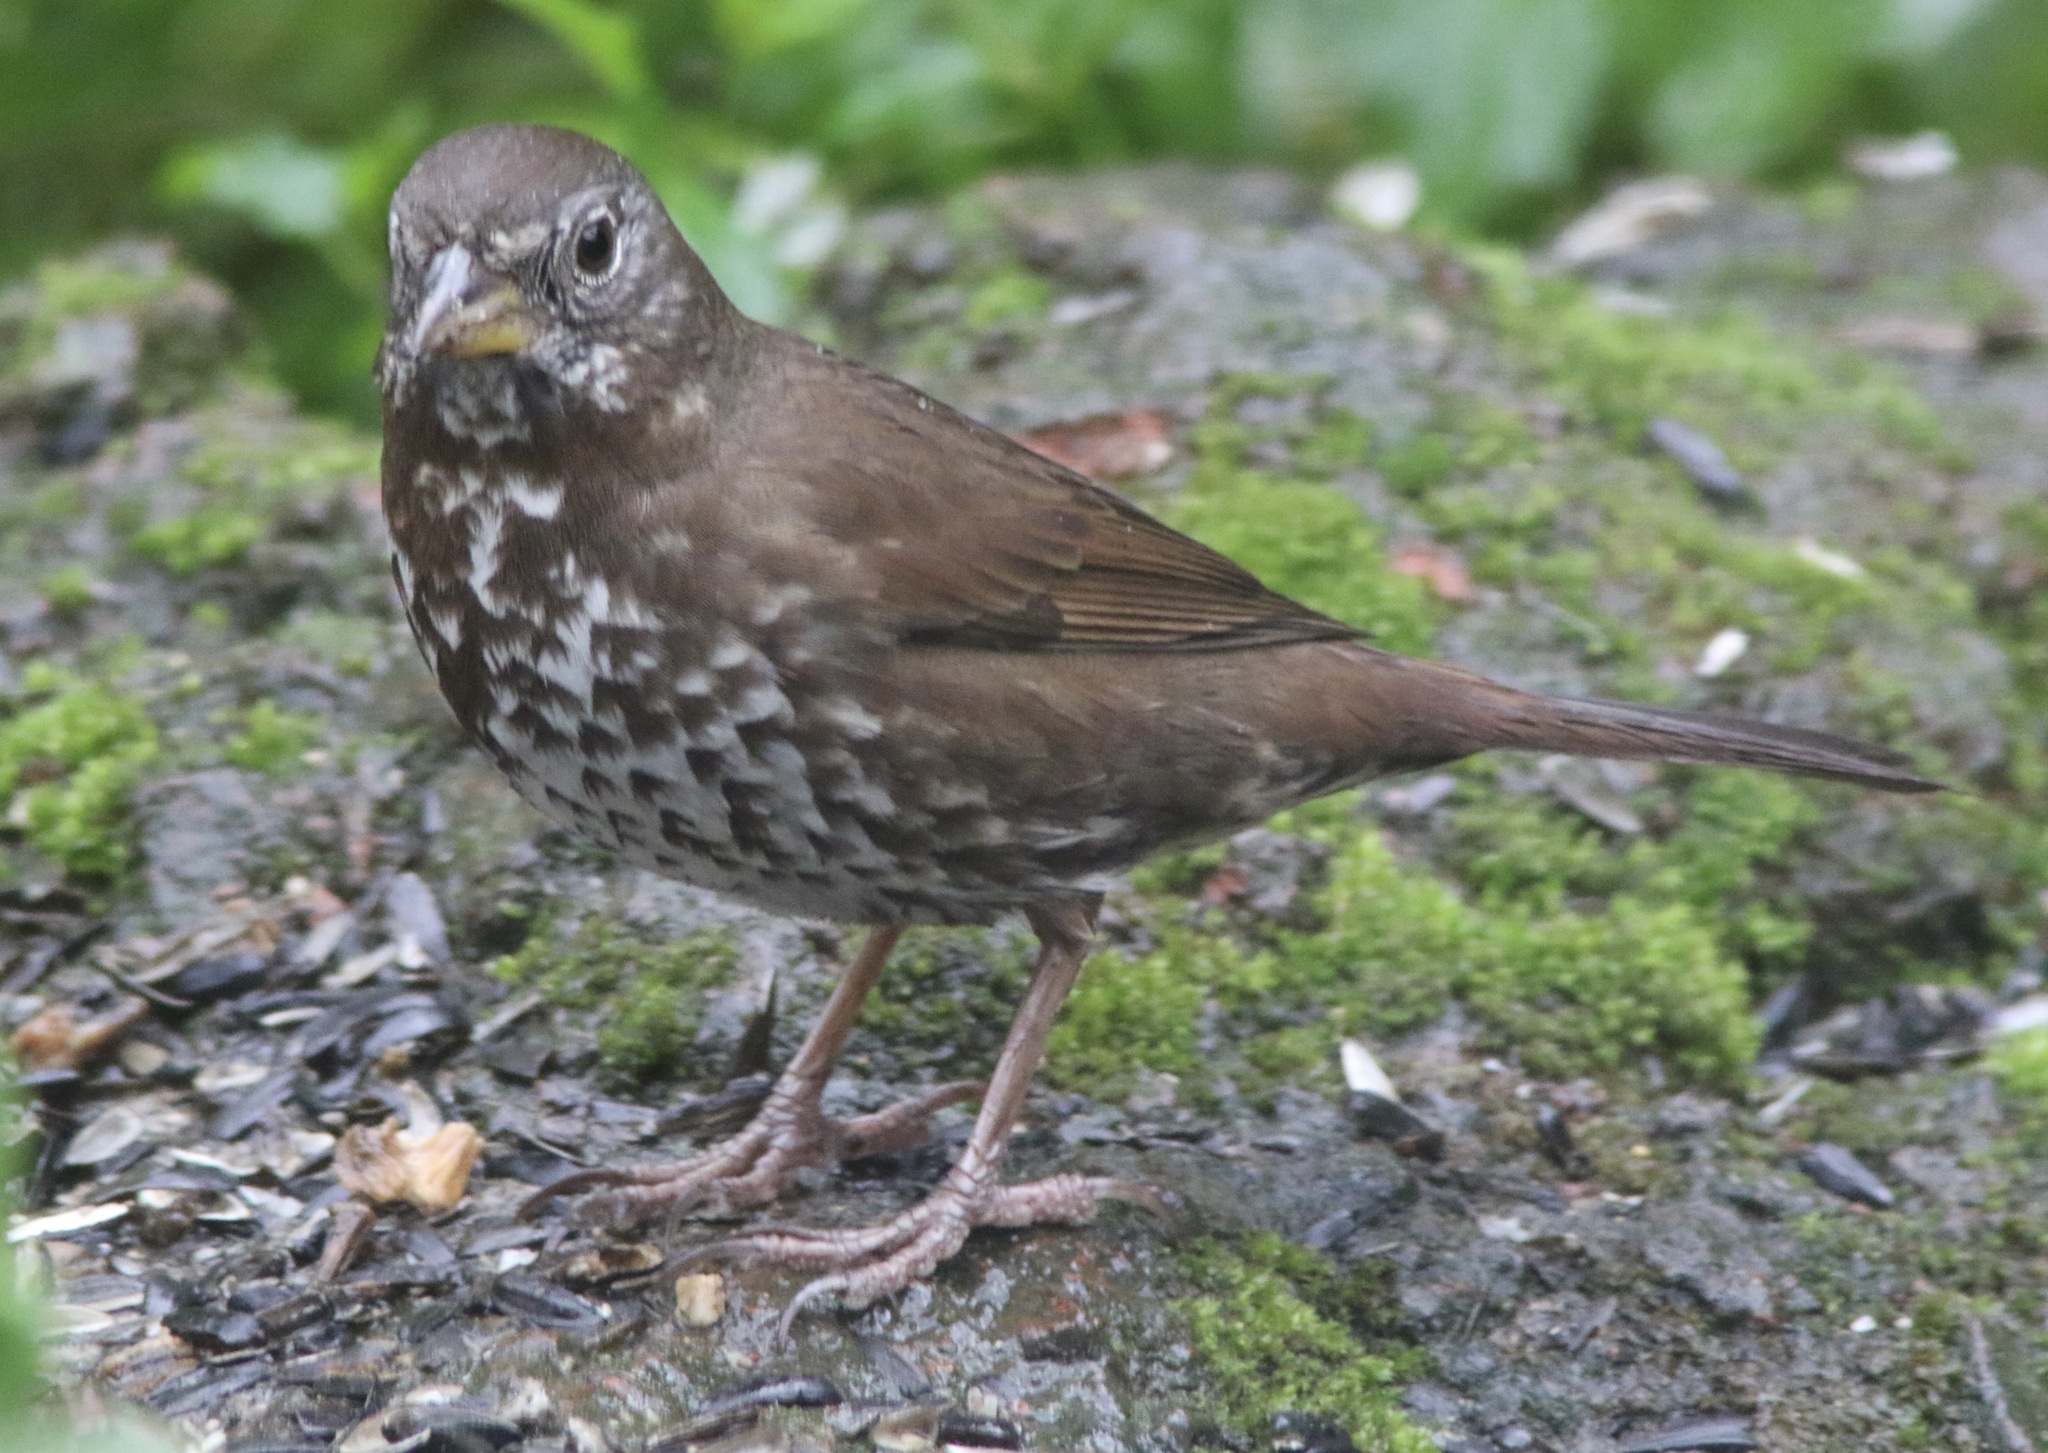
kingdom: Animalia
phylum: Chordata
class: Aves
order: Passeriformes
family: Passerellidae
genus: Passerella
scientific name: Passerella iliaca
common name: Fox sparrow
